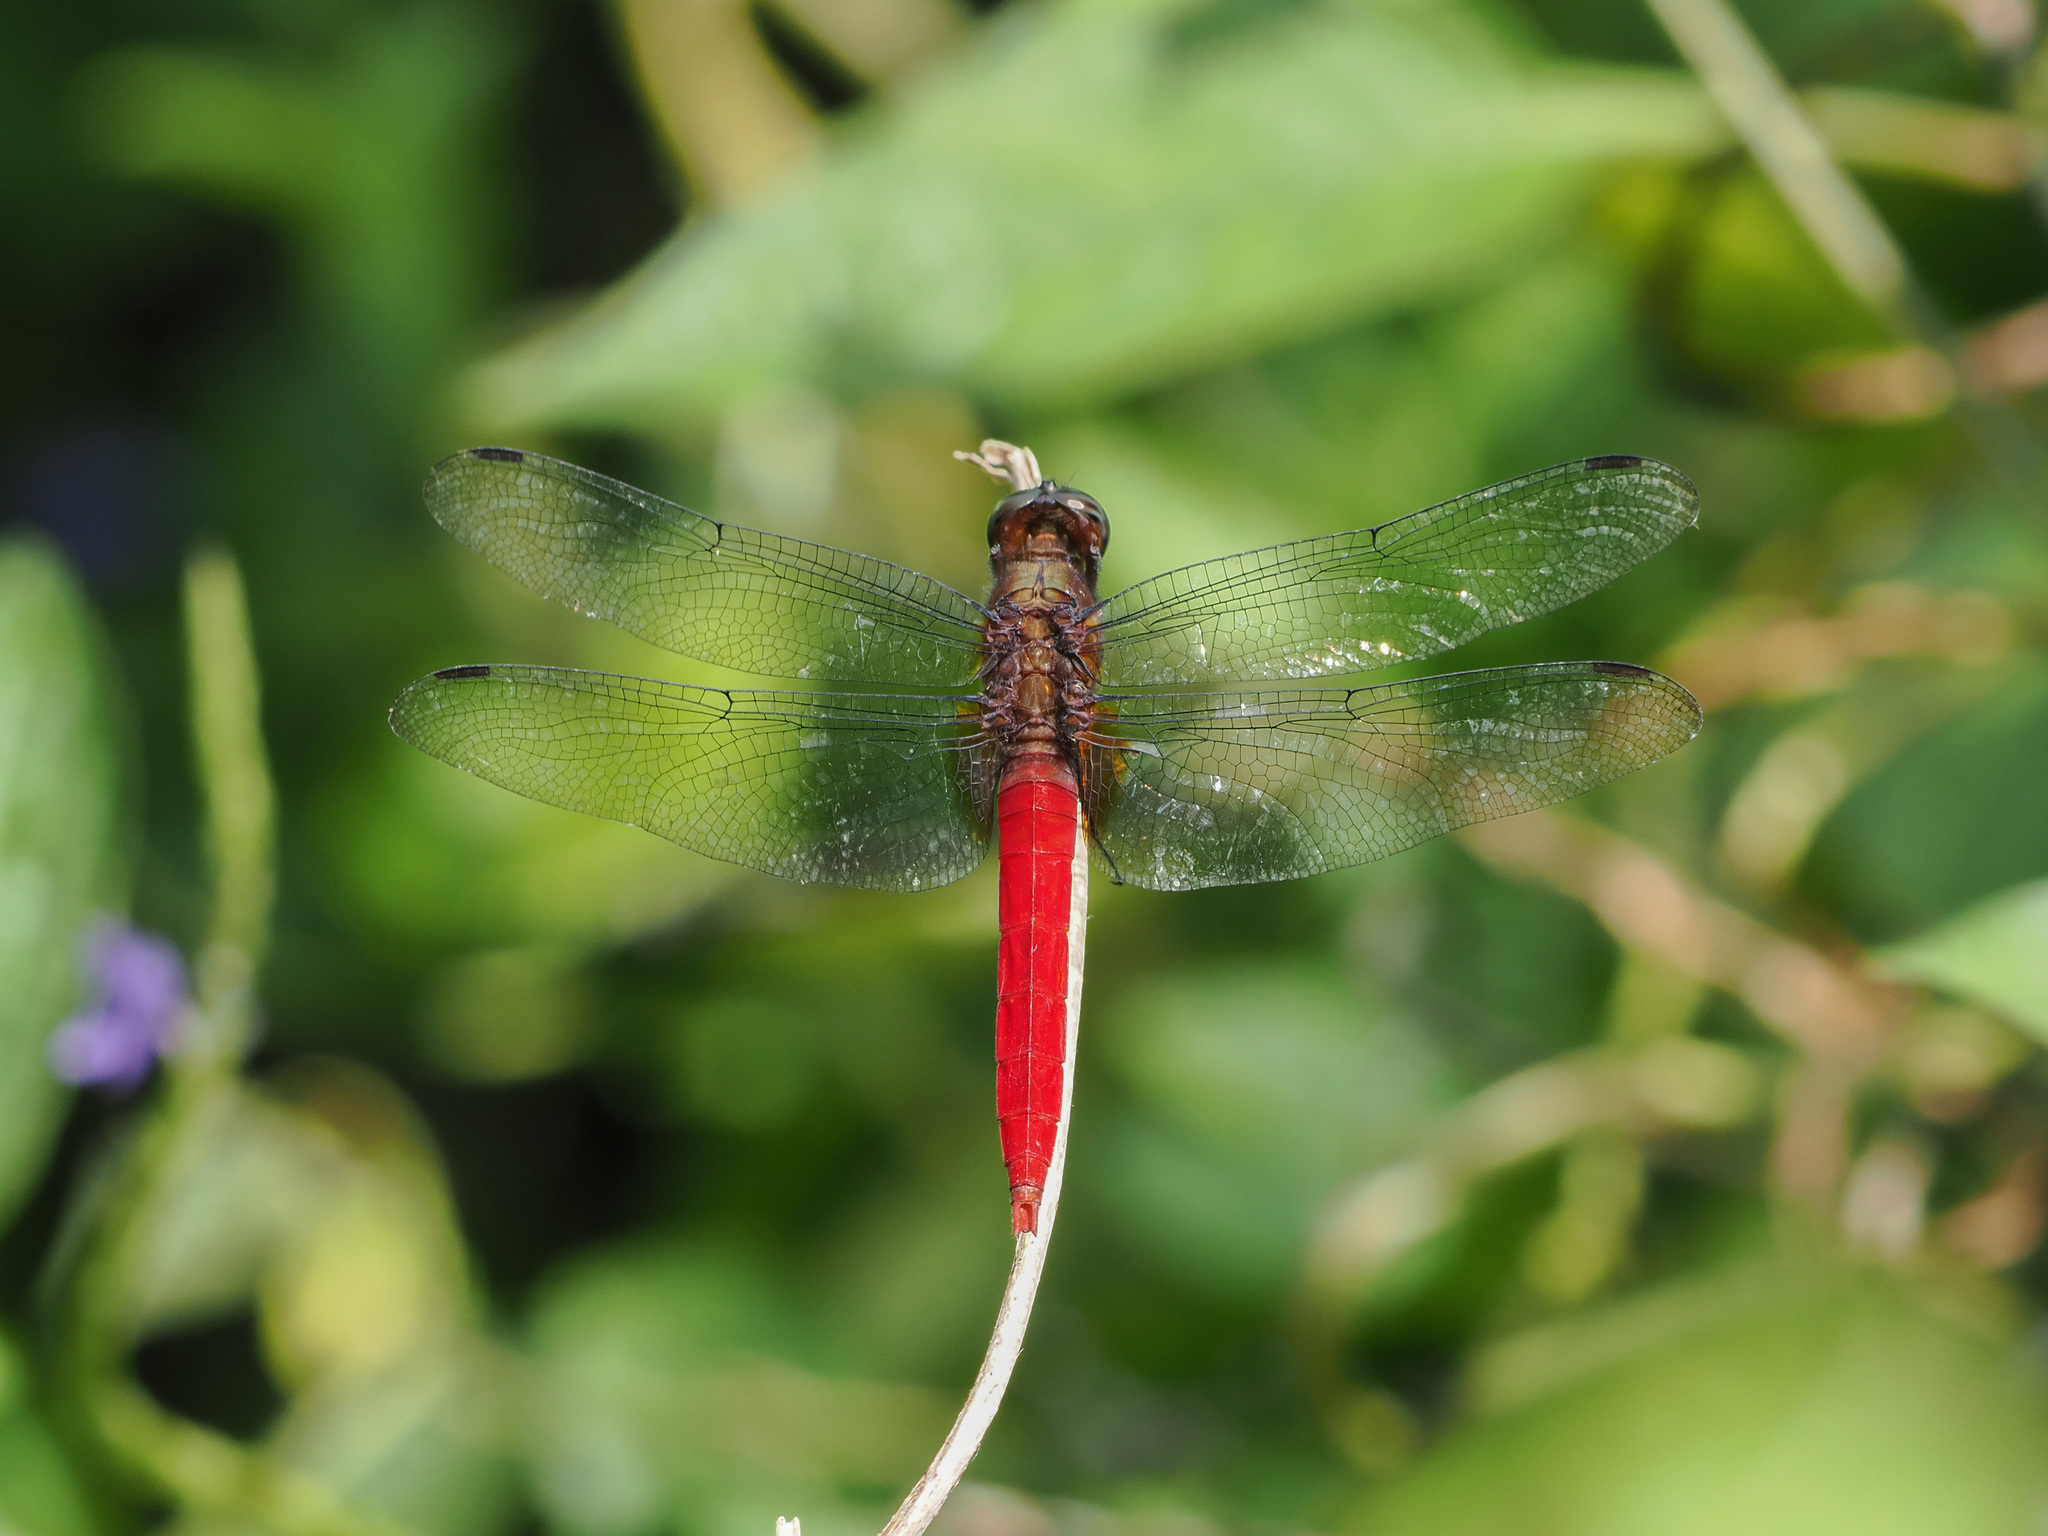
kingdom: Animalia
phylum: Arthropoda
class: Insecta
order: Odonata
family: Libellulidae
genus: Orthetrum
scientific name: Orthetrum chrysis
